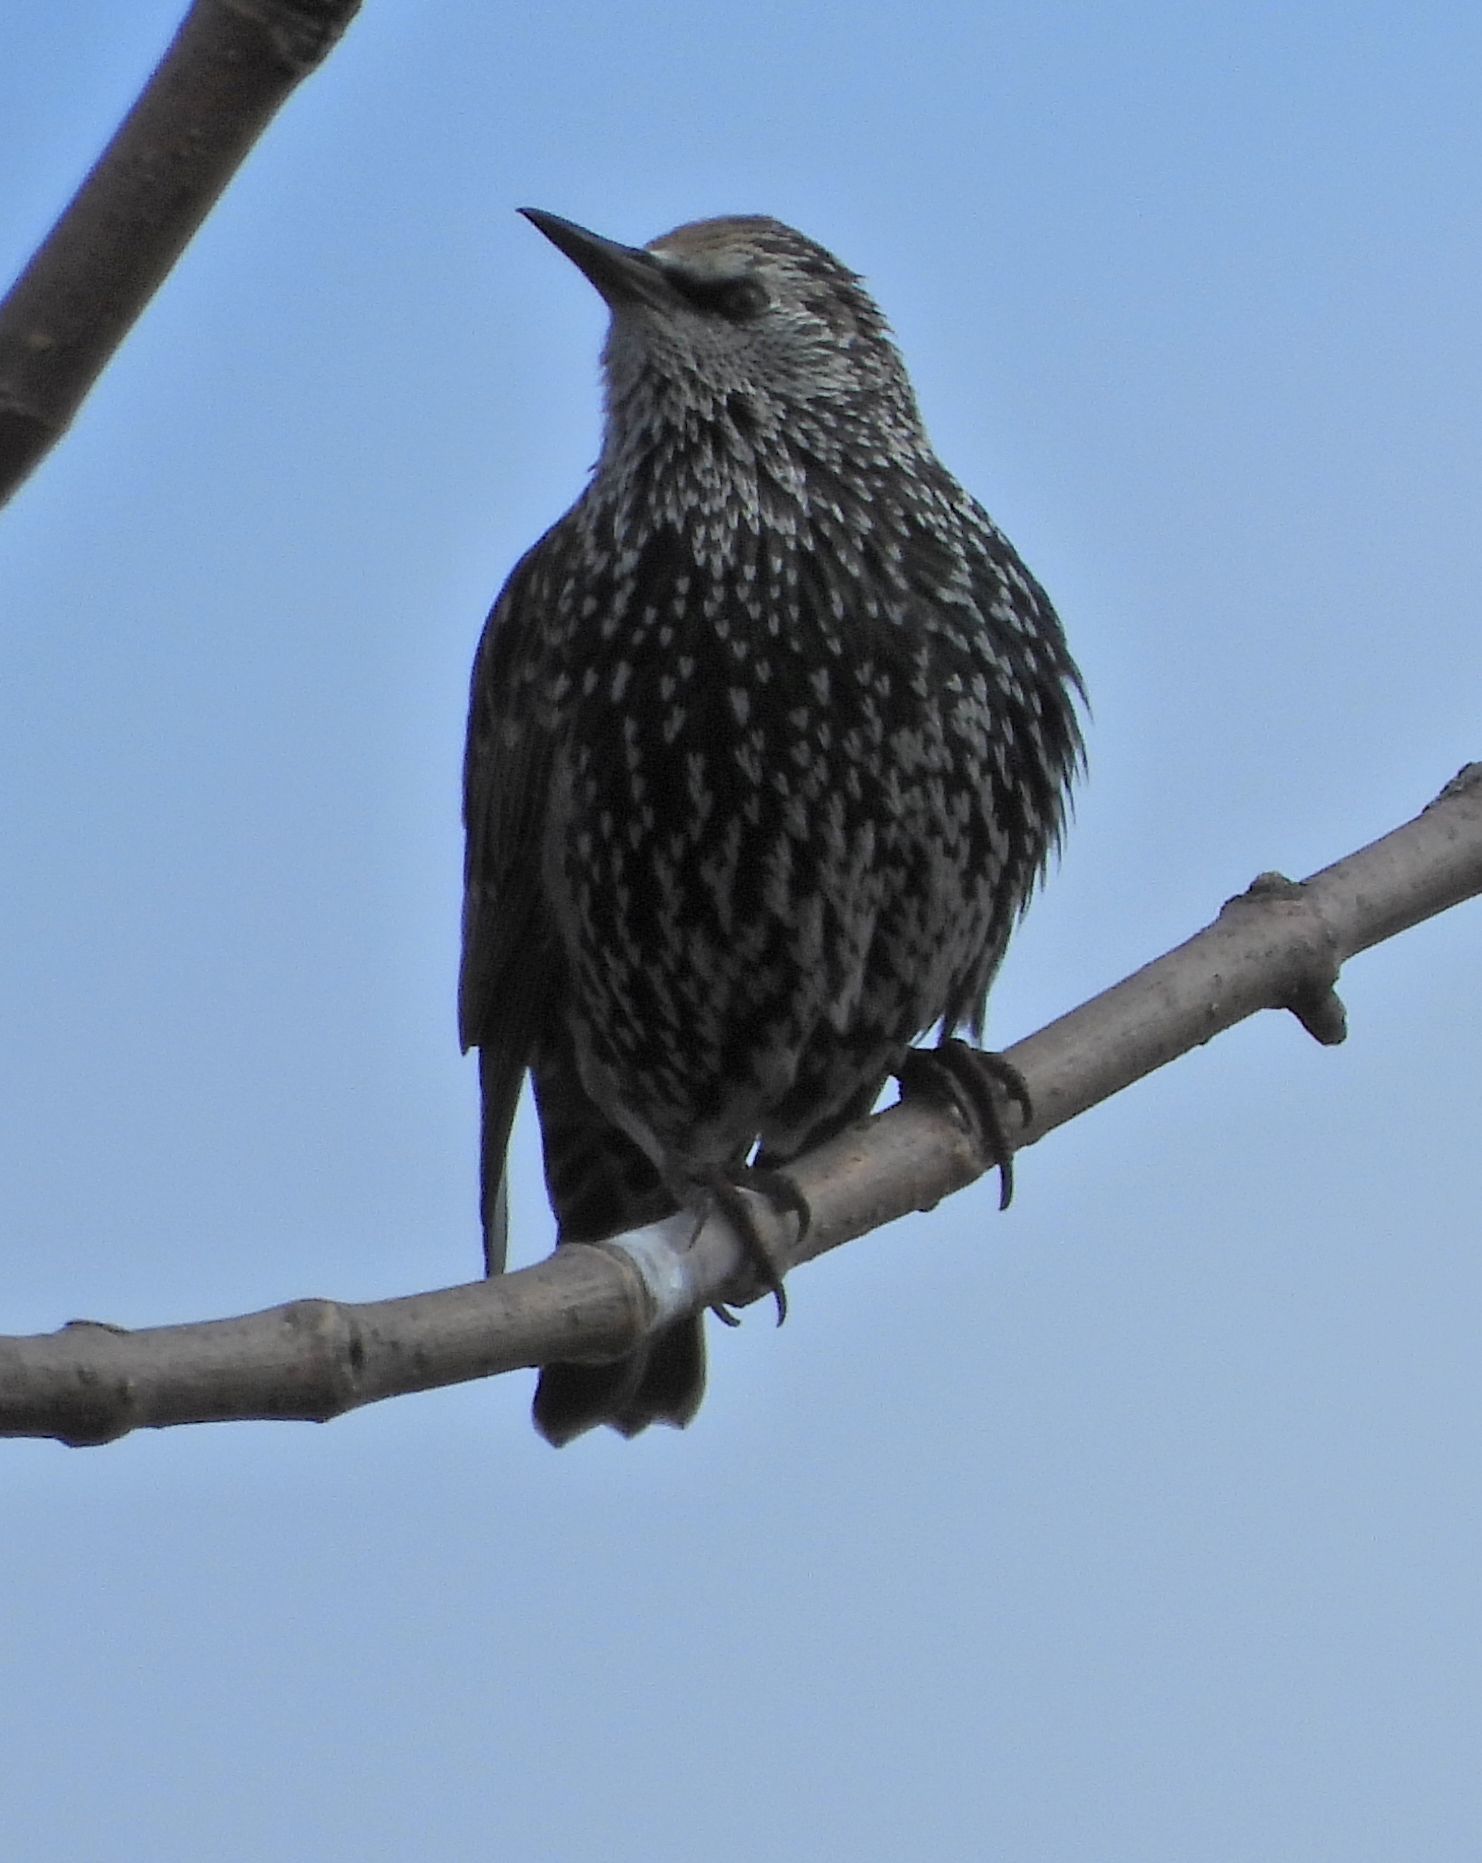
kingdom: Animalia
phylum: Chordata
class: Aves
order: Passeriformes
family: Sturnidae
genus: Sturnus
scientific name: Sturnus vulgaris
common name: Common starling
